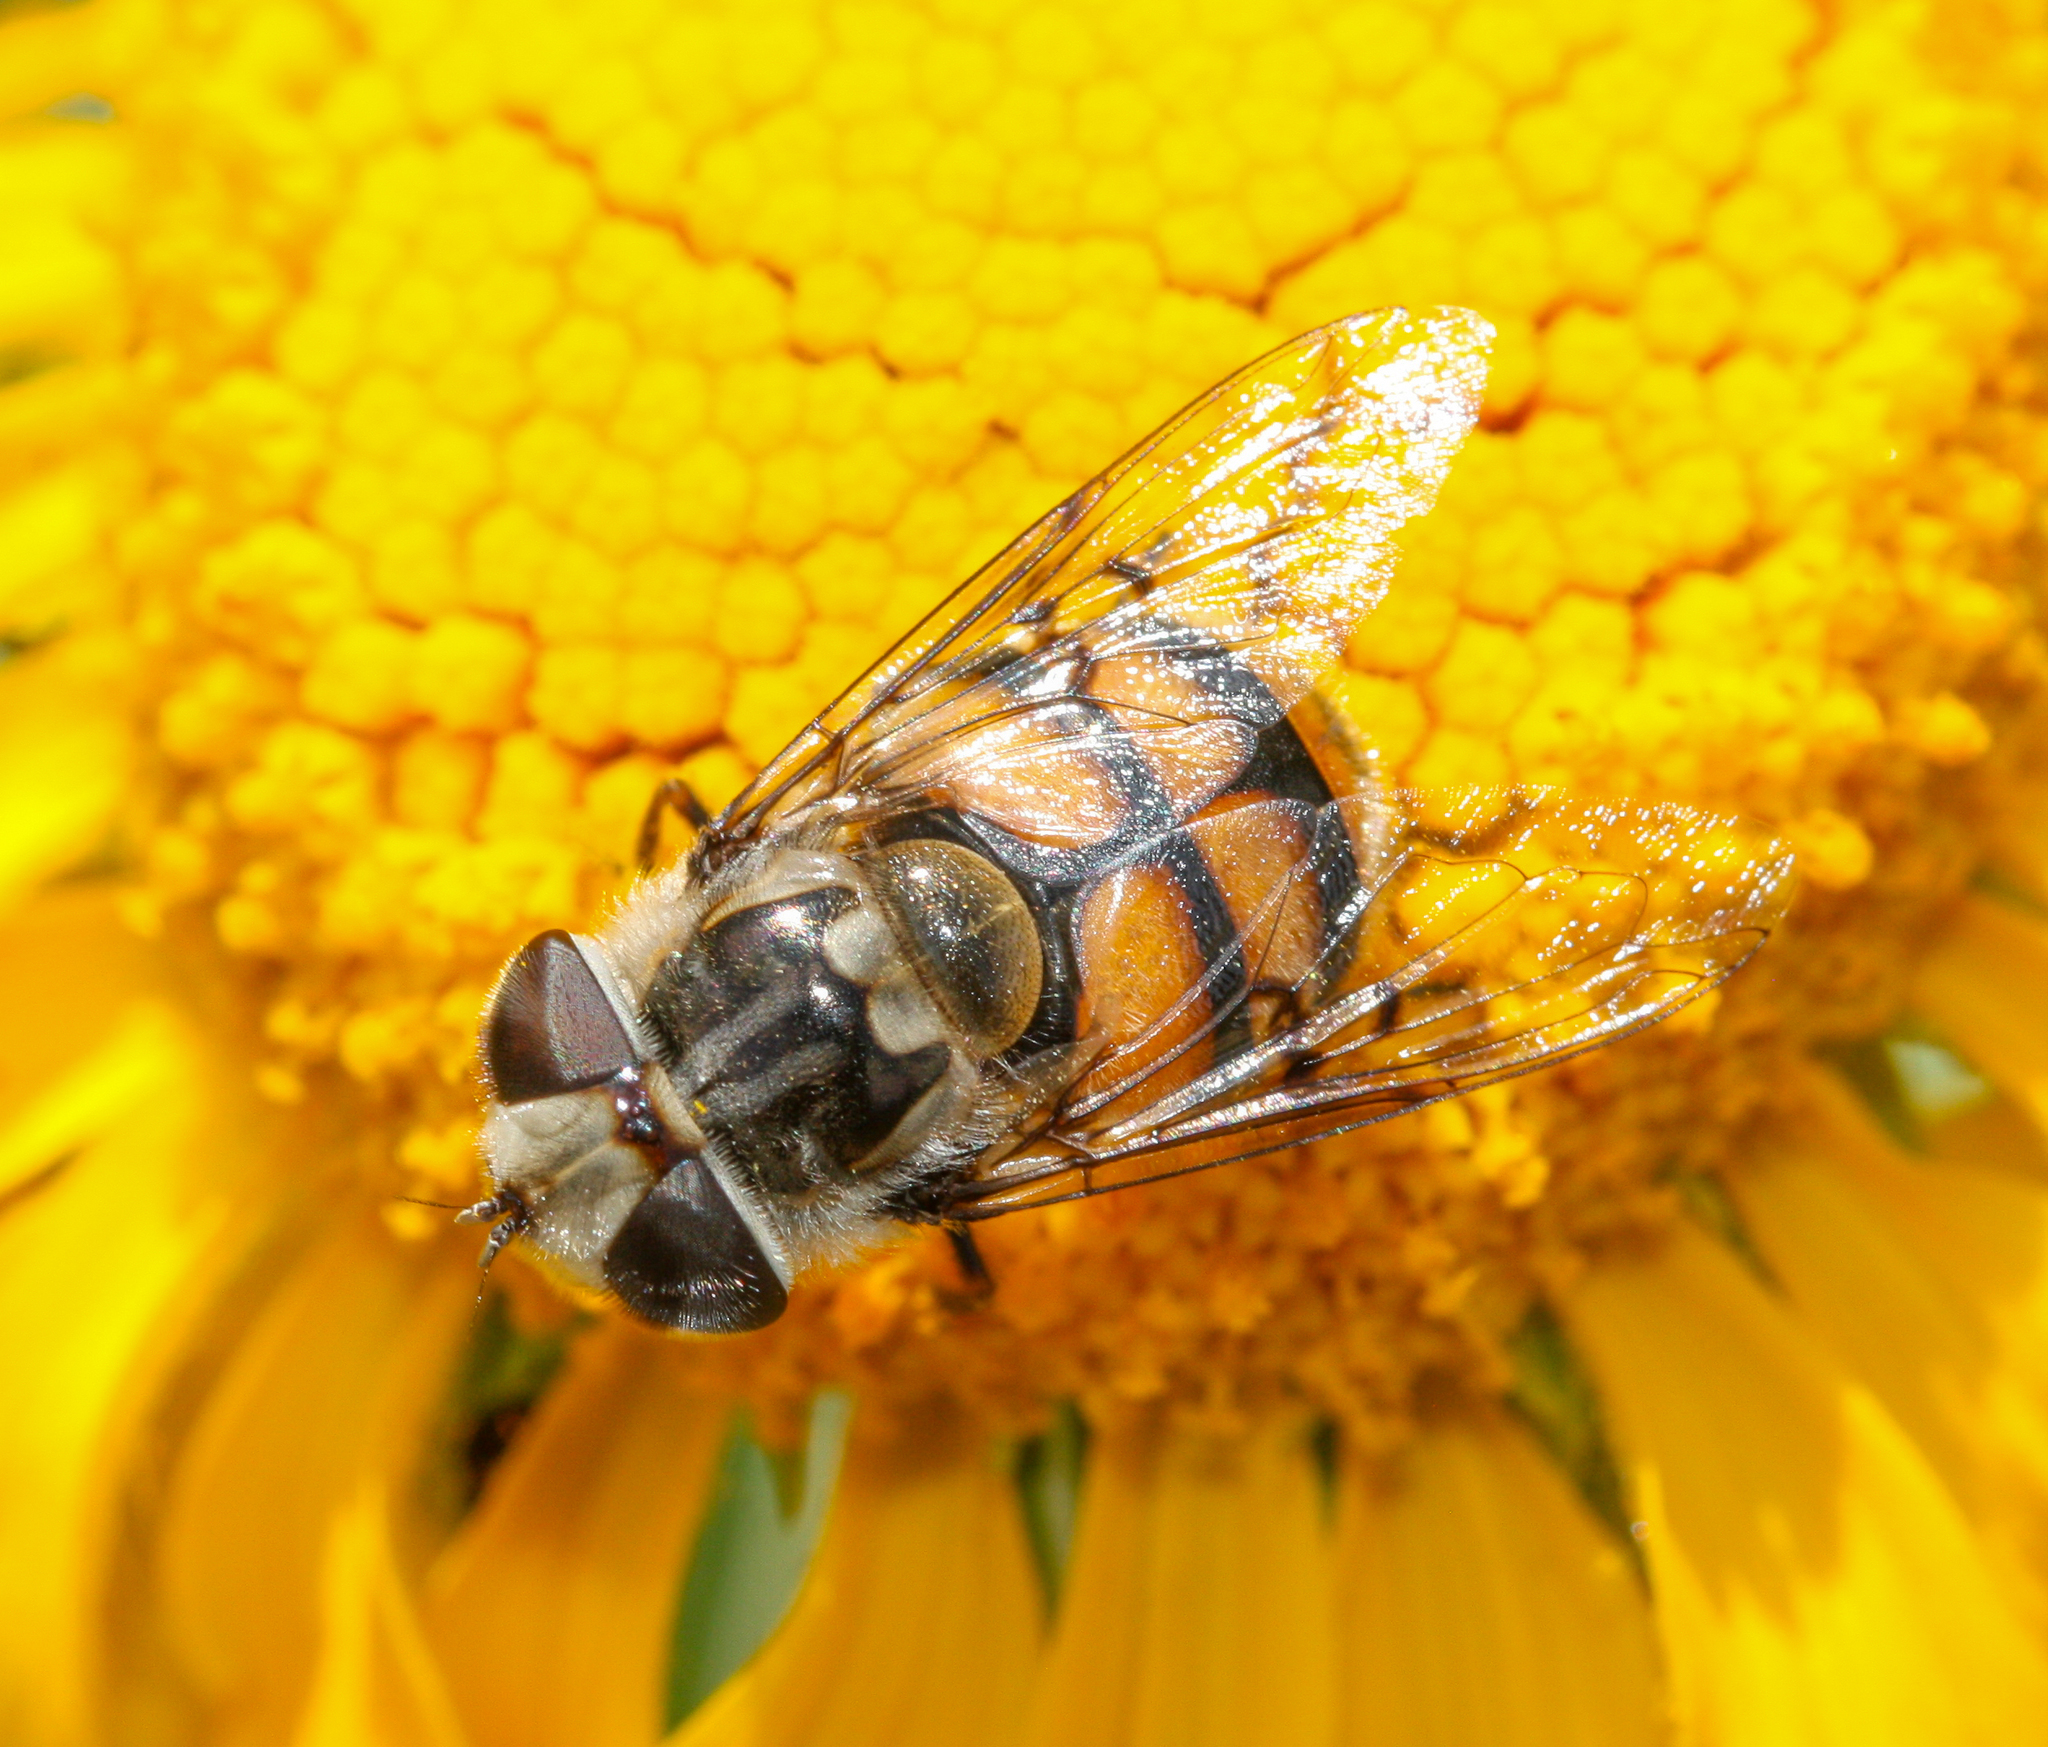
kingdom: Animalia
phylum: Arthropoda
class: Insecta
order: Diptera
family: Syrphidae
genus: Copestylum
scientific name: Copestylum avidum
